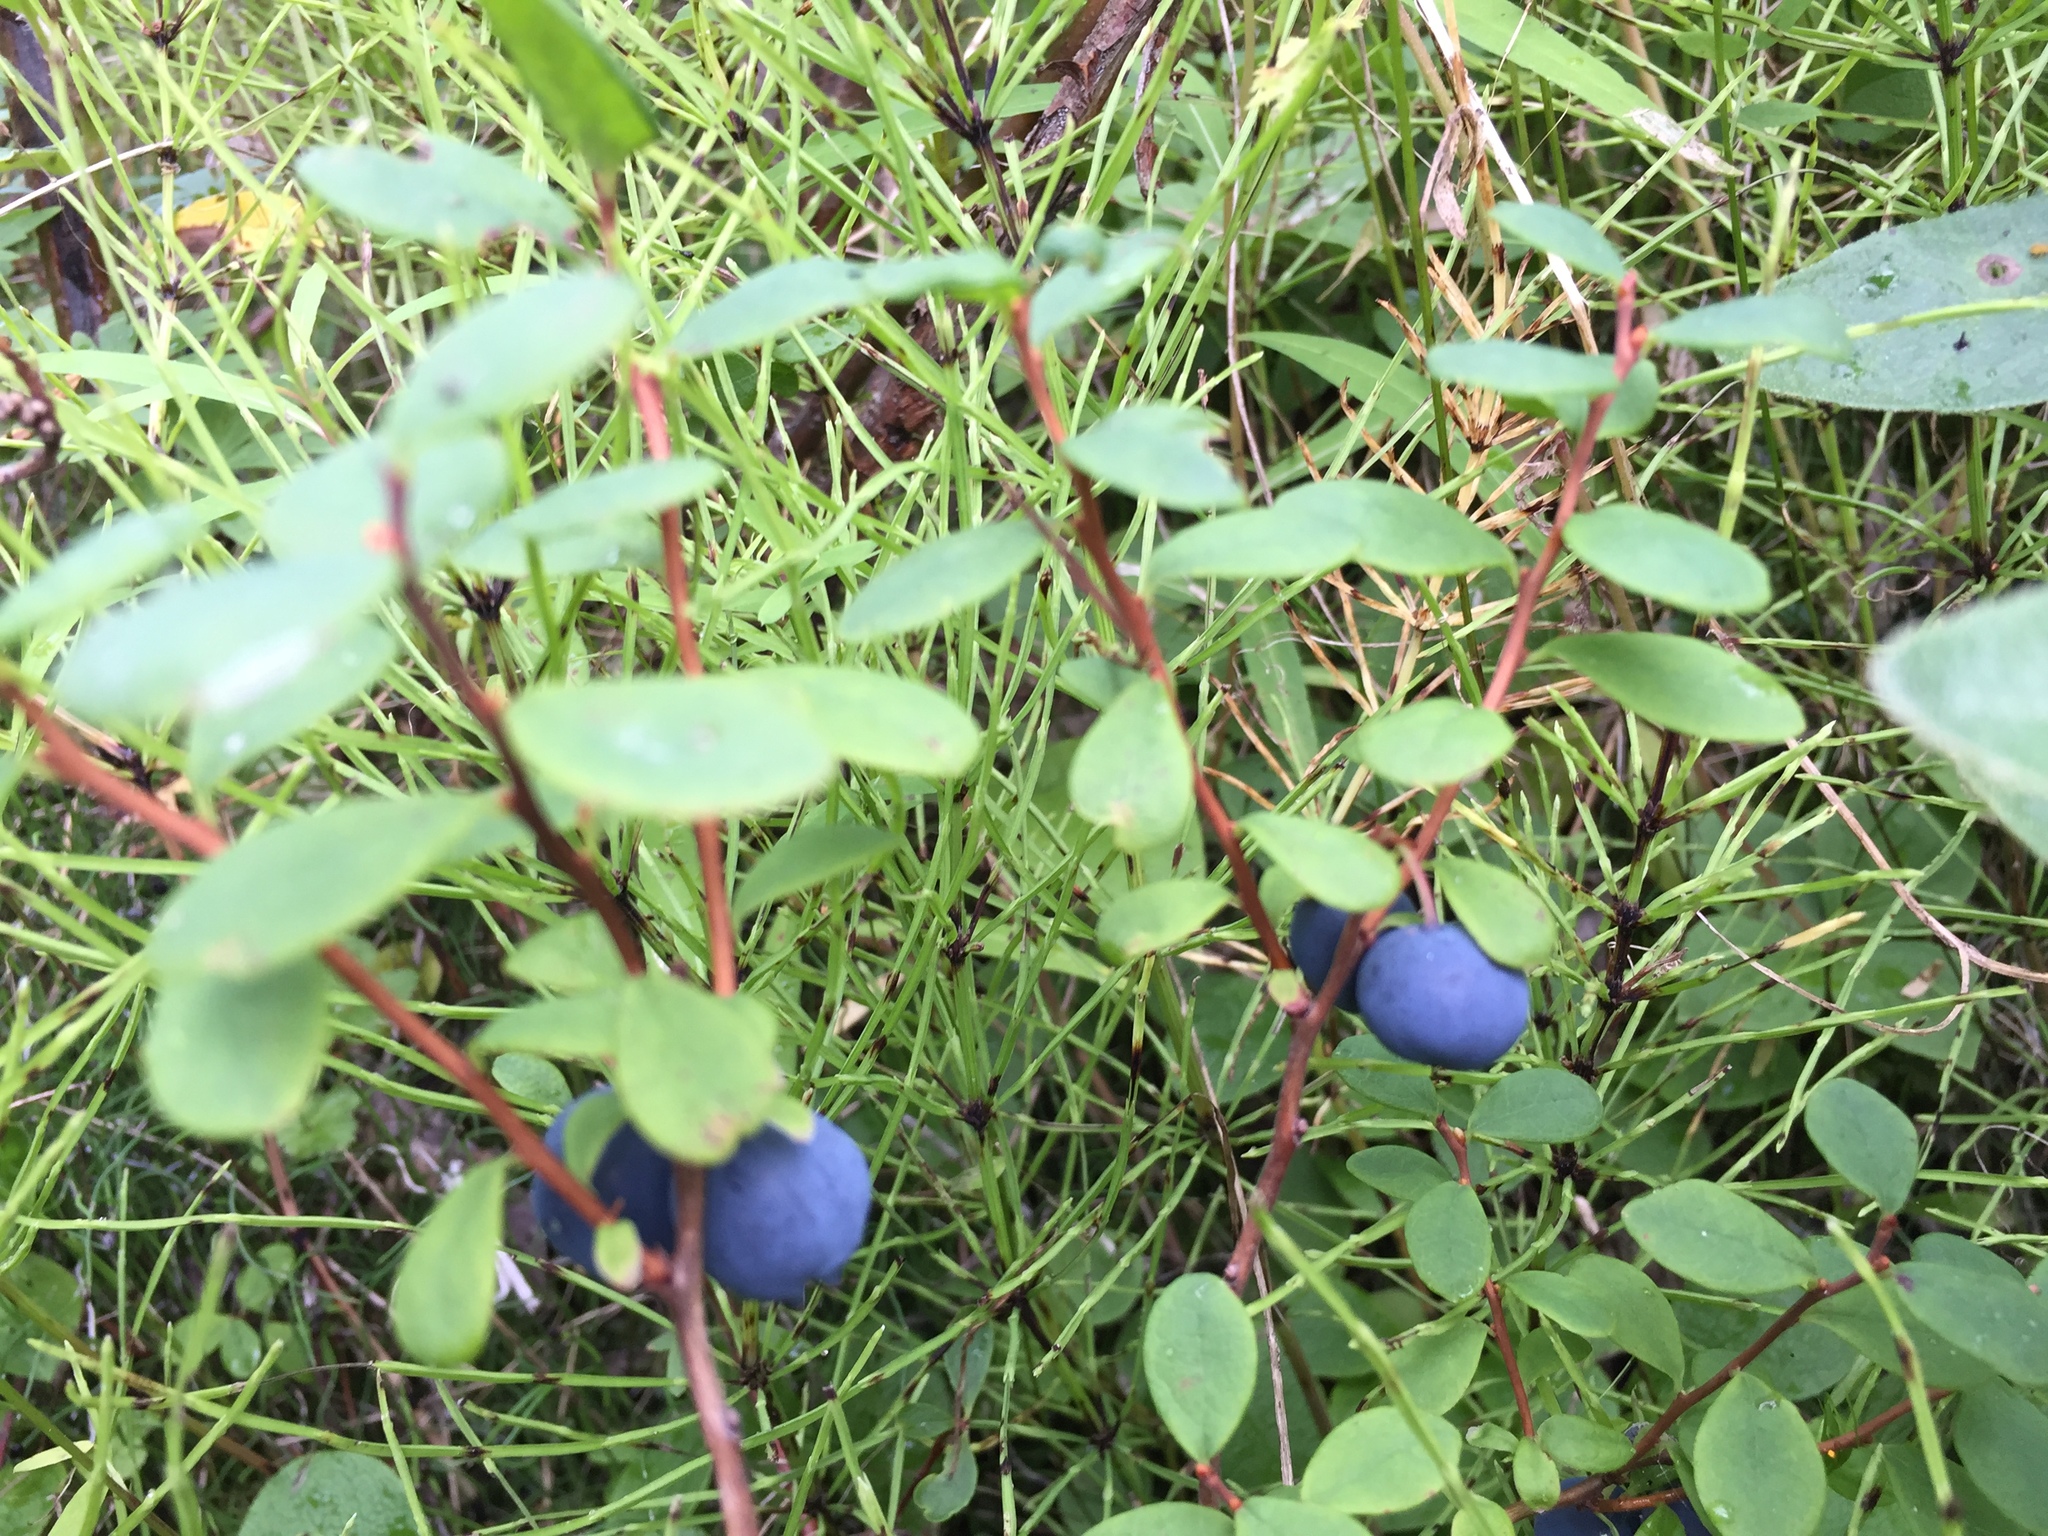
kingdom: Plantae
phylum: Tracheophyta
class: Magnoliopsida
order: Ericales
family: Ericaceae
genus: Vaccinium
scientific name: Vaccinium uliginosum
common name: Bog bilberry
